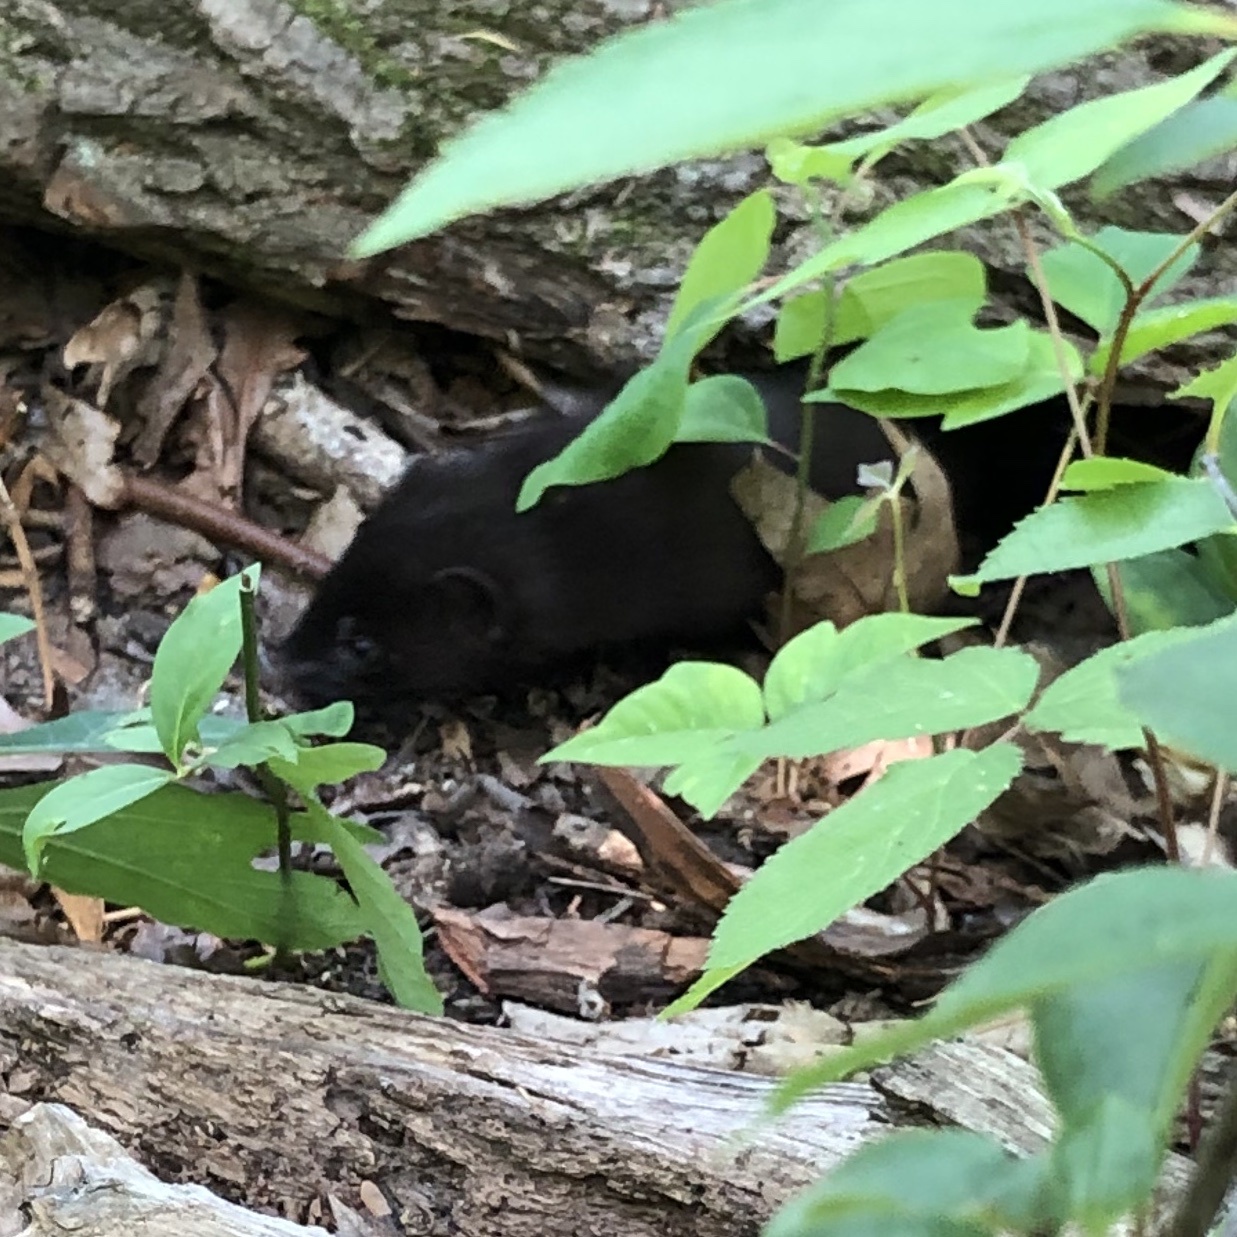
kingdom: Animalia
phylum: Chordata
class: Mammalia
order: Carnivora
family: Mustelidae
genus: Mustela
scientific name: Mustela
